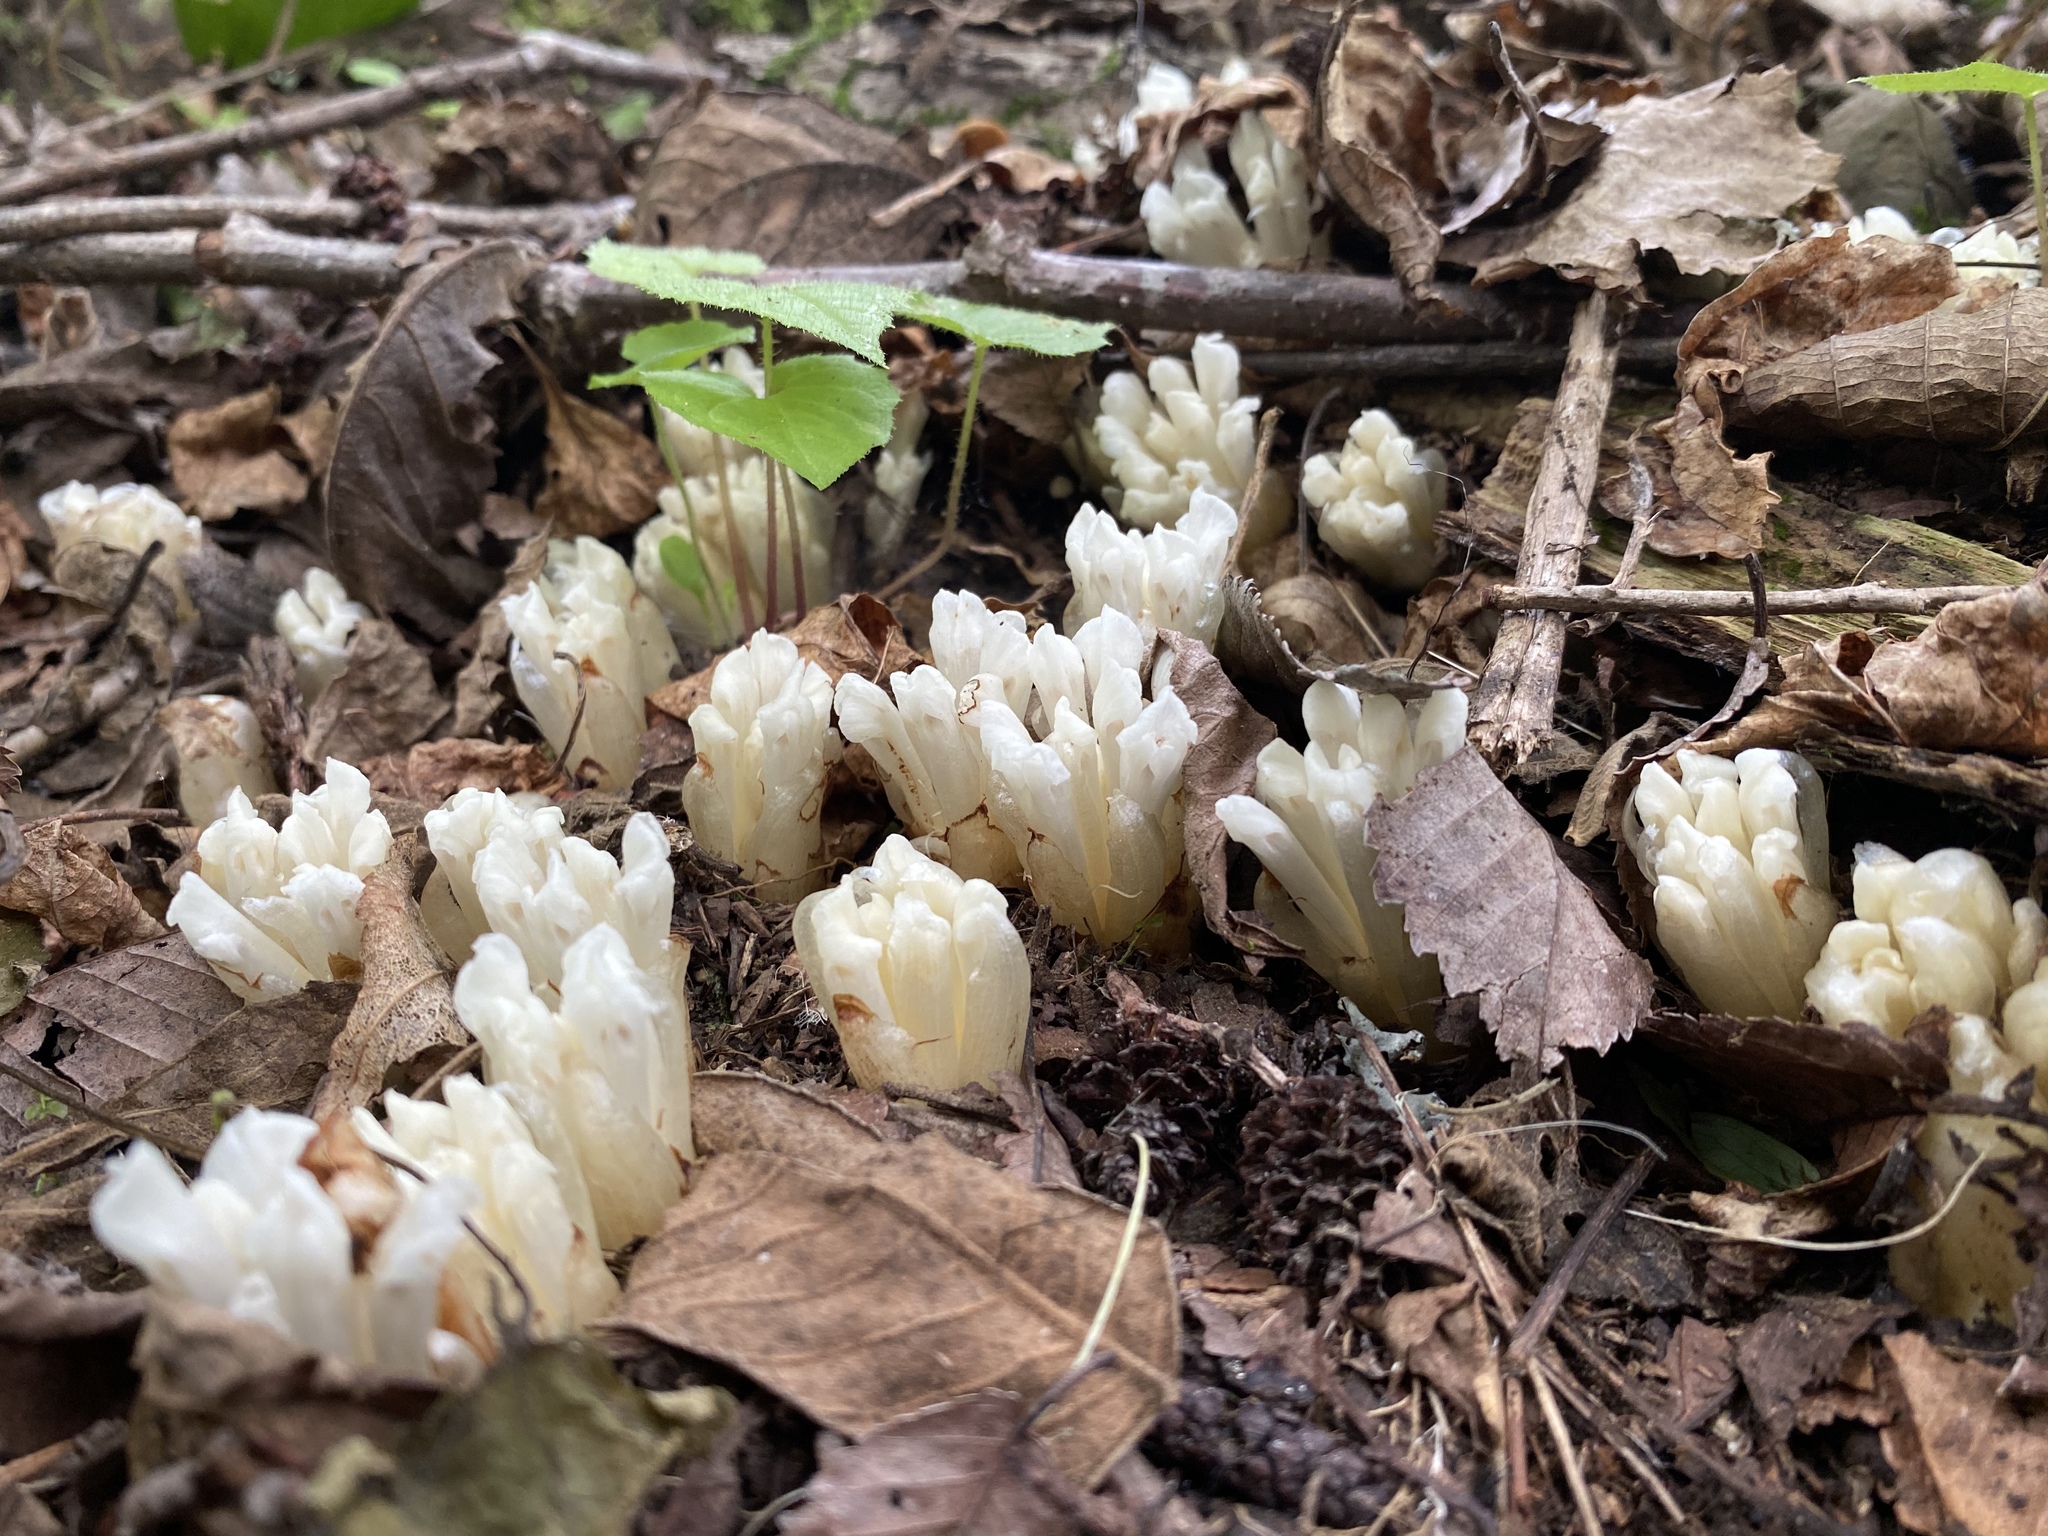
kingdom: Plantae
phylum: Tracheophyta
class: Magnoliopsida
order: Lamiales
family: Orobanchaceae
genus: Phacellanthus
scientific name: Phacellanthus tubiflorus
